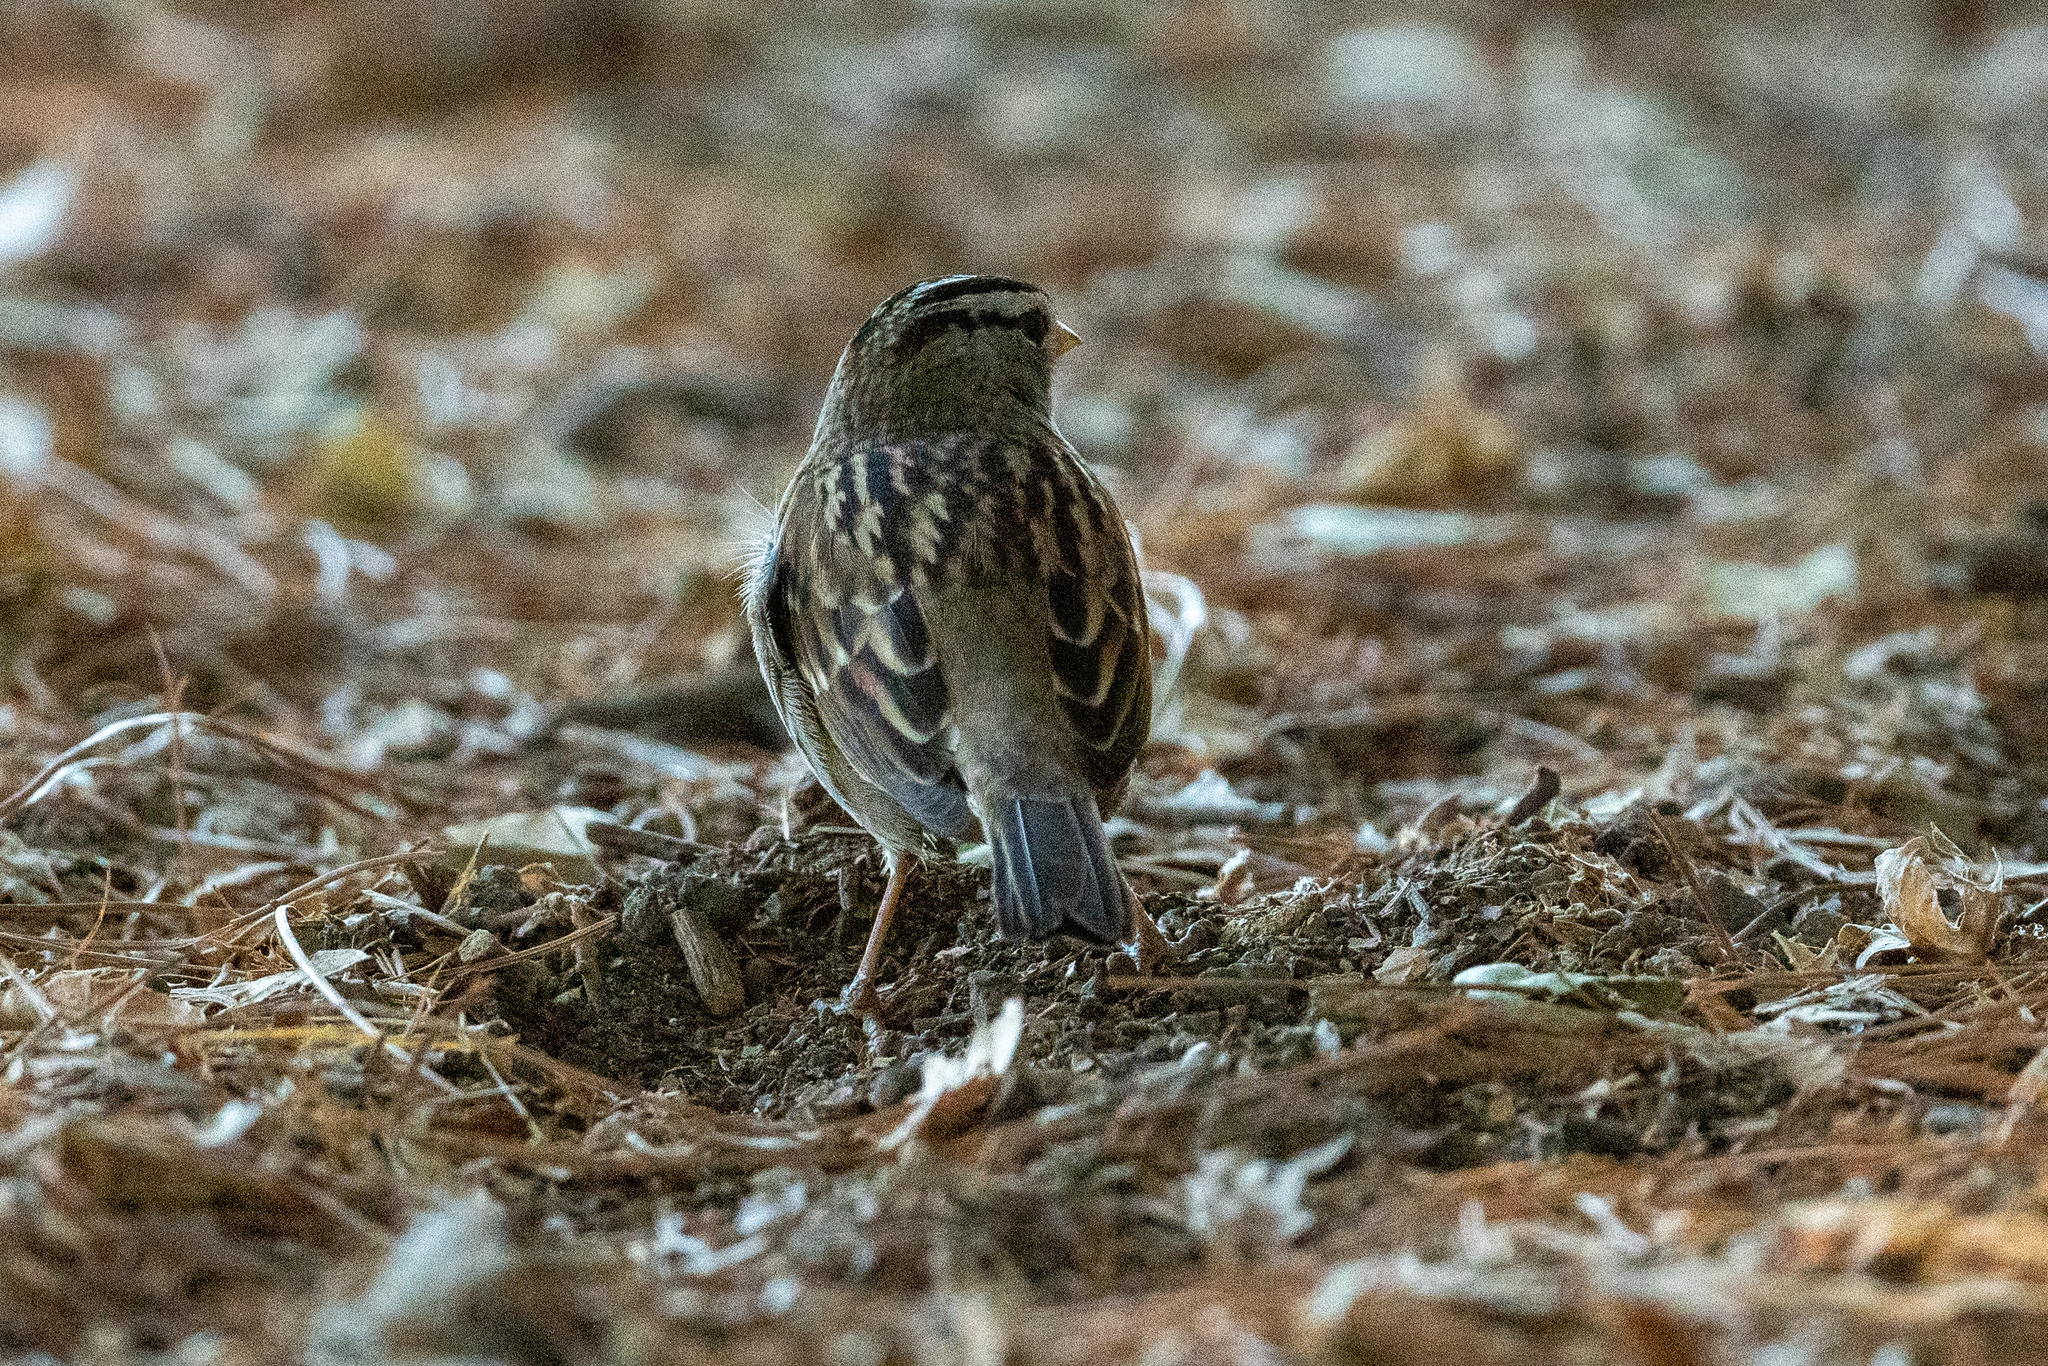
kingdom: Animalia
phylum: Chordata
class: Aves
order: Passeriformes
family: Passerellidae
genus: Zonotrichia
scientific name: Zonotrichia leucophrys
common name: White-crowned sparrow
